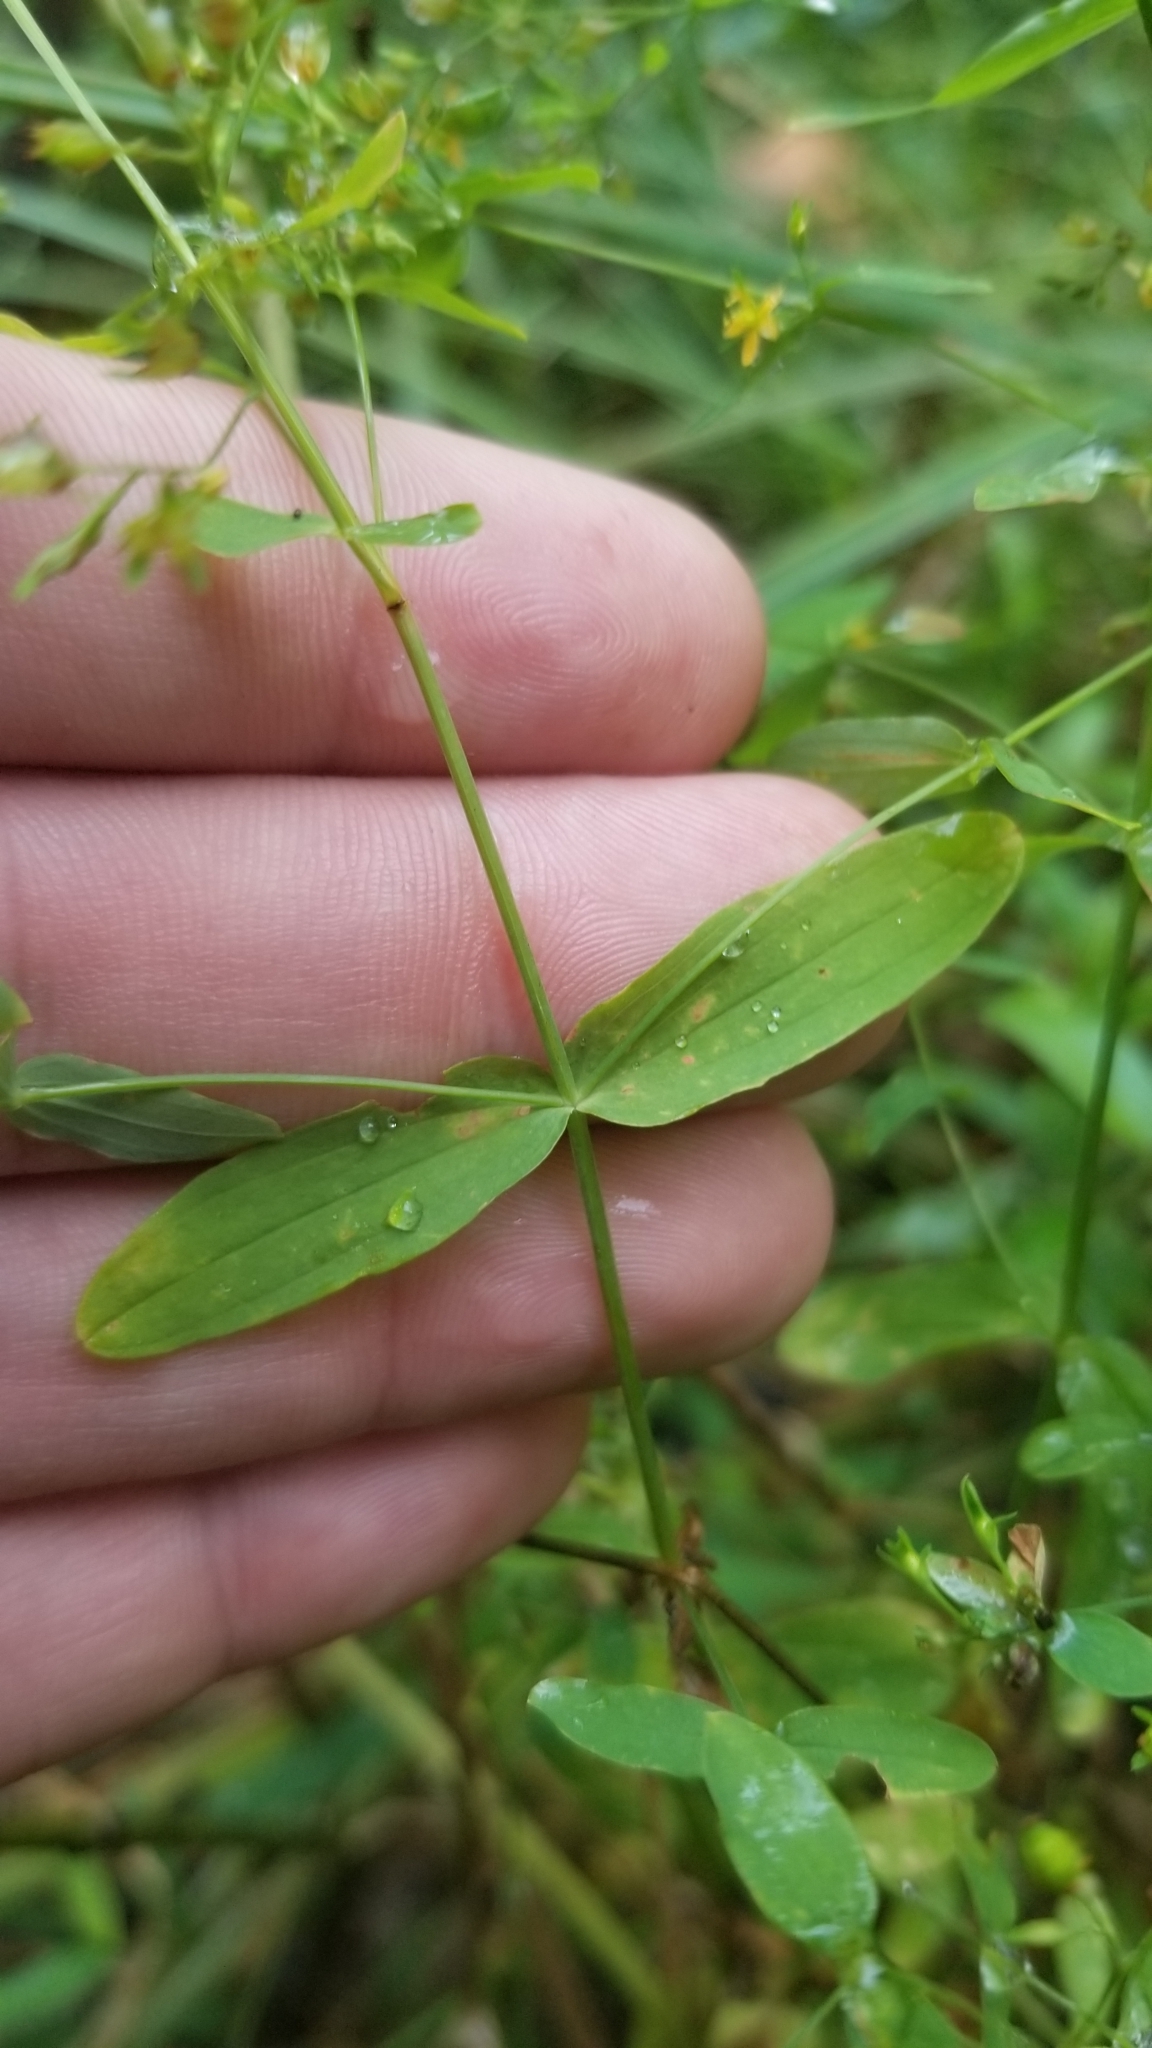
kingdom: Plantae
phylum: Tracheophyta
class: Magnoliopsida
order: Malpighiales
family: Hypericaceae
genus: Hypericum
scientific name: Hypericum mutilum
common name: Dwarf st. john's-wort
